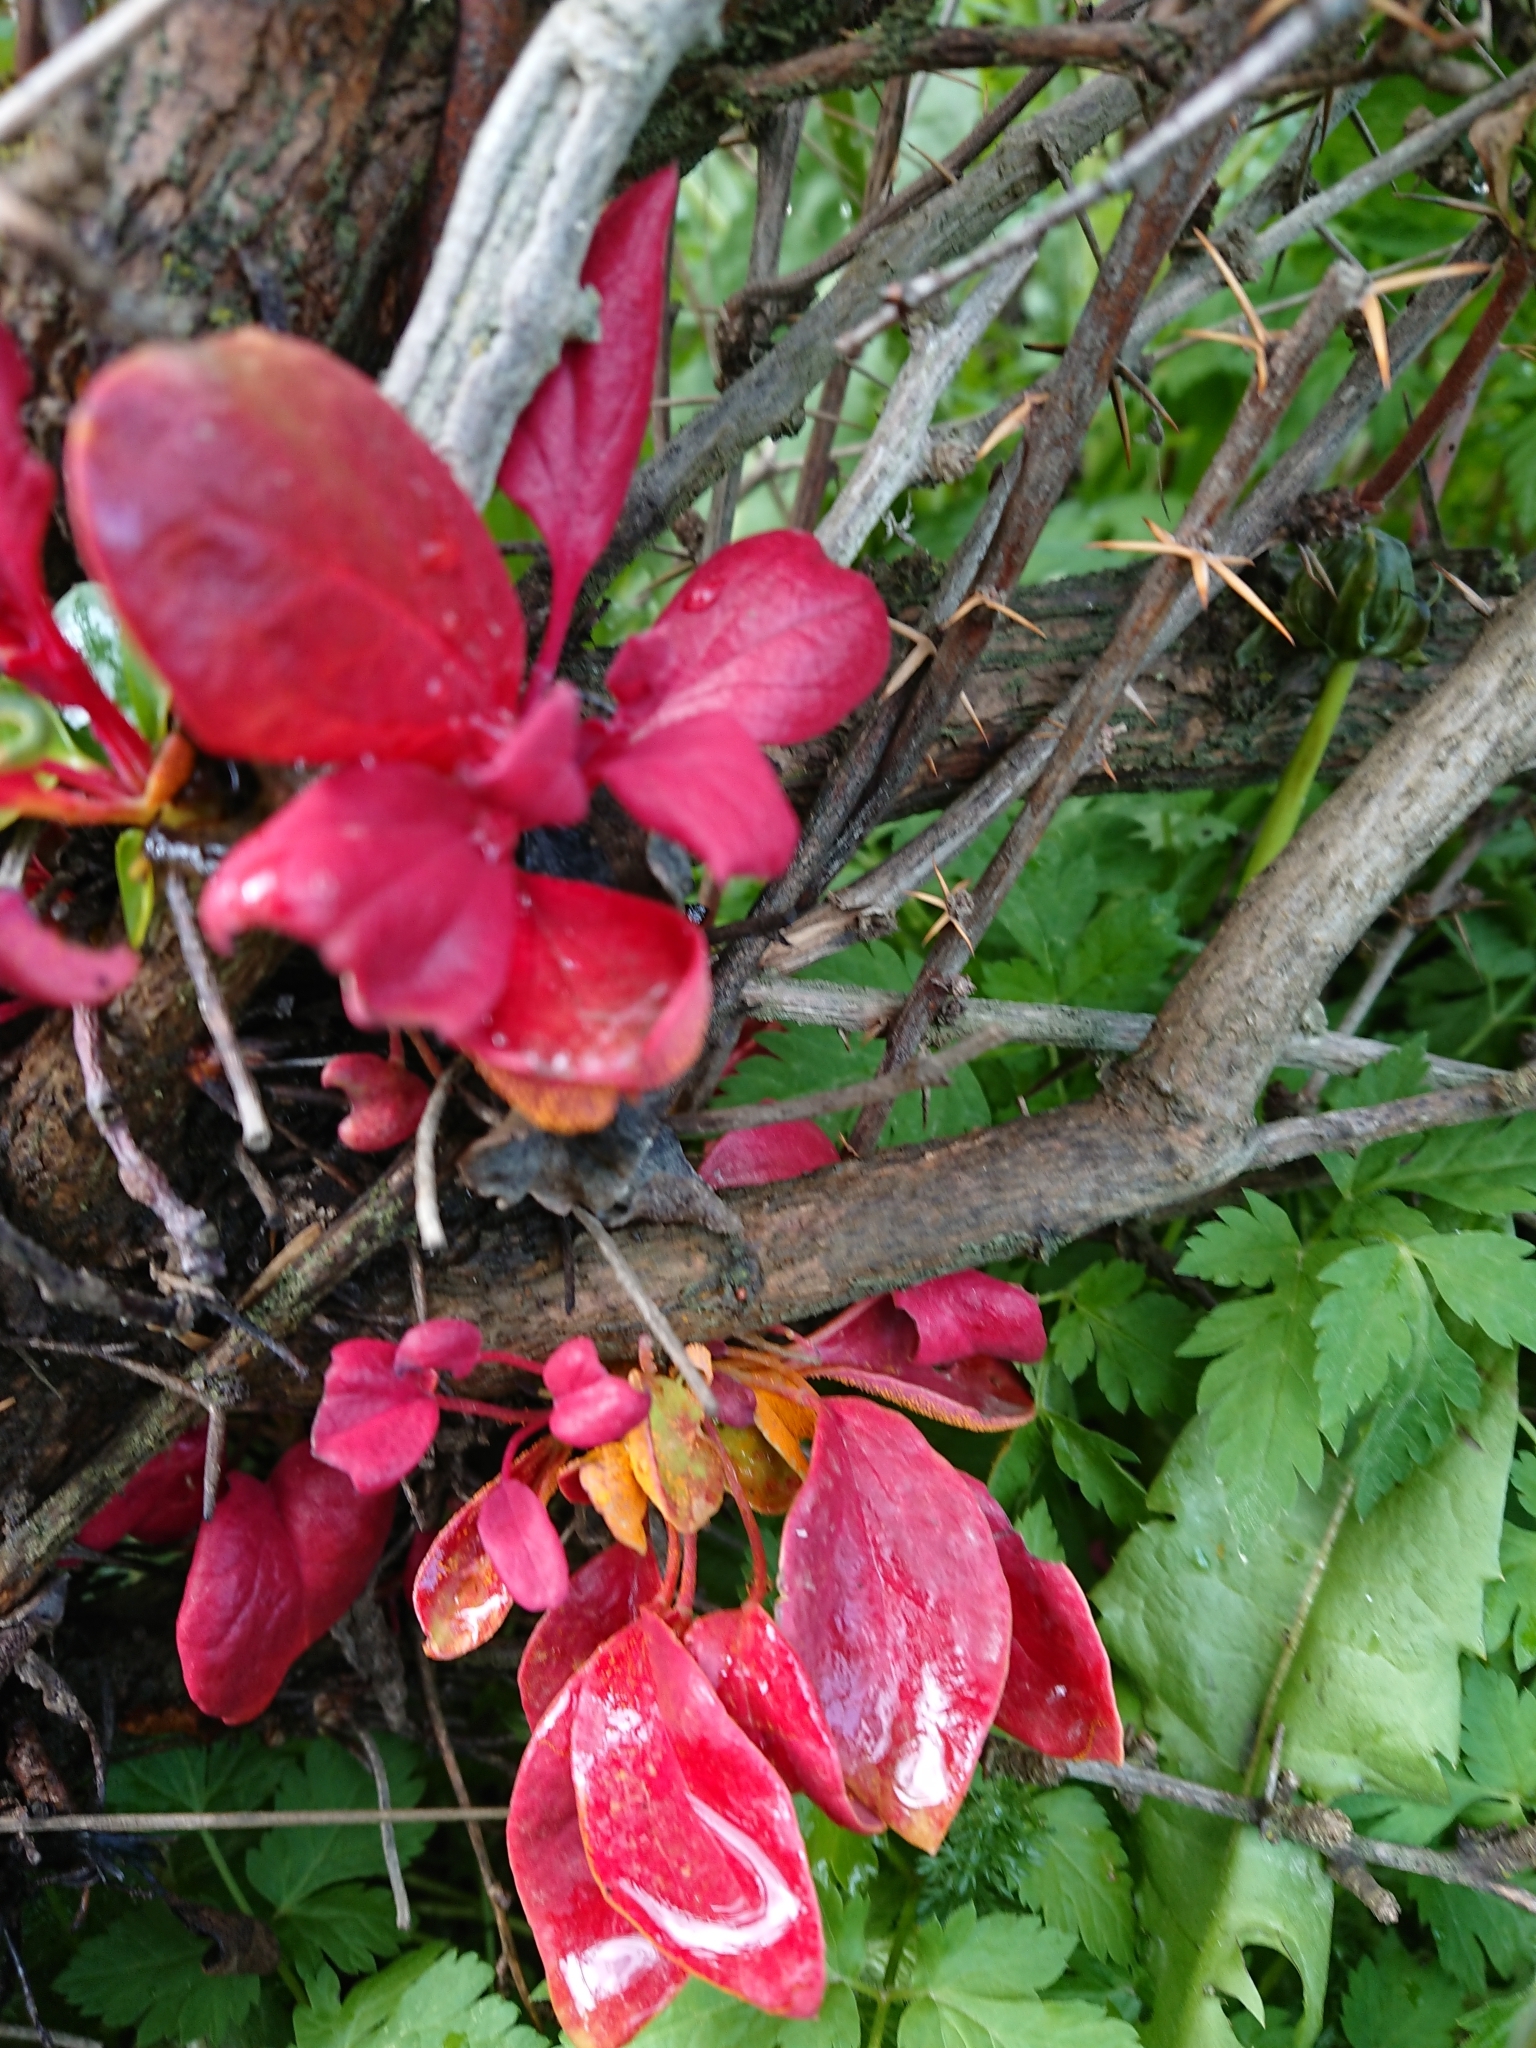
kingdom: Fungi
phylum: Basidiomycota
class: Pucciniomycetes
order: Pucciniales
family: Pucciniaceae
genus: Puccinia
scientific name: Puccinia magellanica
